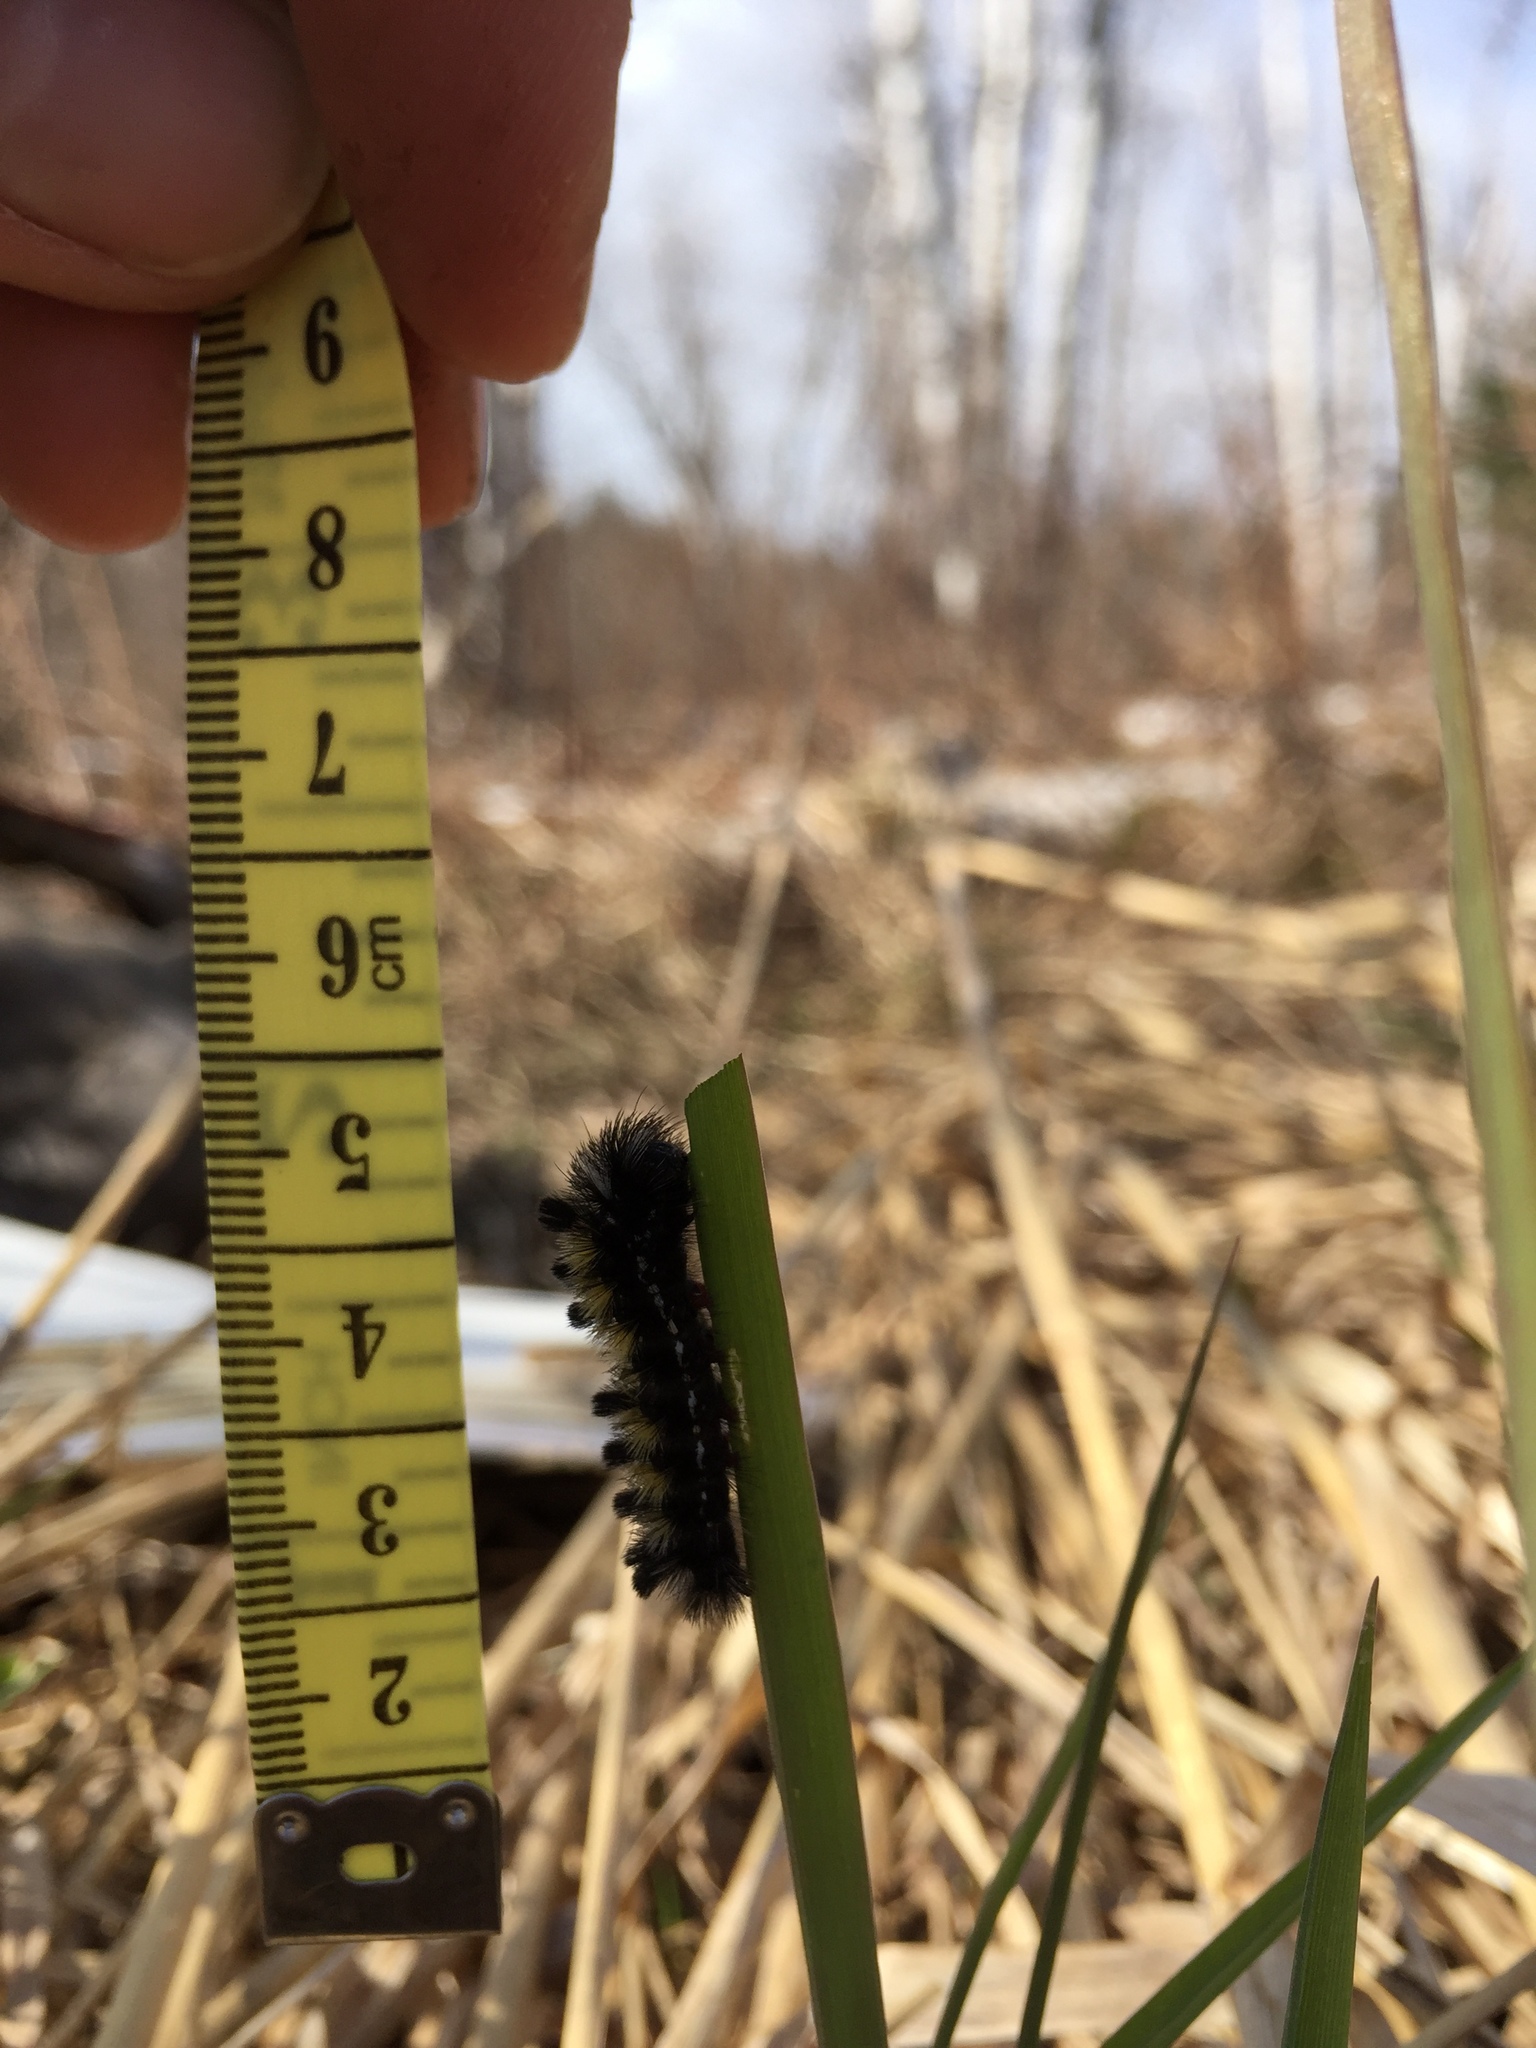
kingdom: Animalia
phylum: Arthropoda
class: Insecta
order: Lepidoptera
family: Erebidae
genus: Ctenucha
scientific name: Ctenucha virginica
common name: Virginia ctenucha moth
